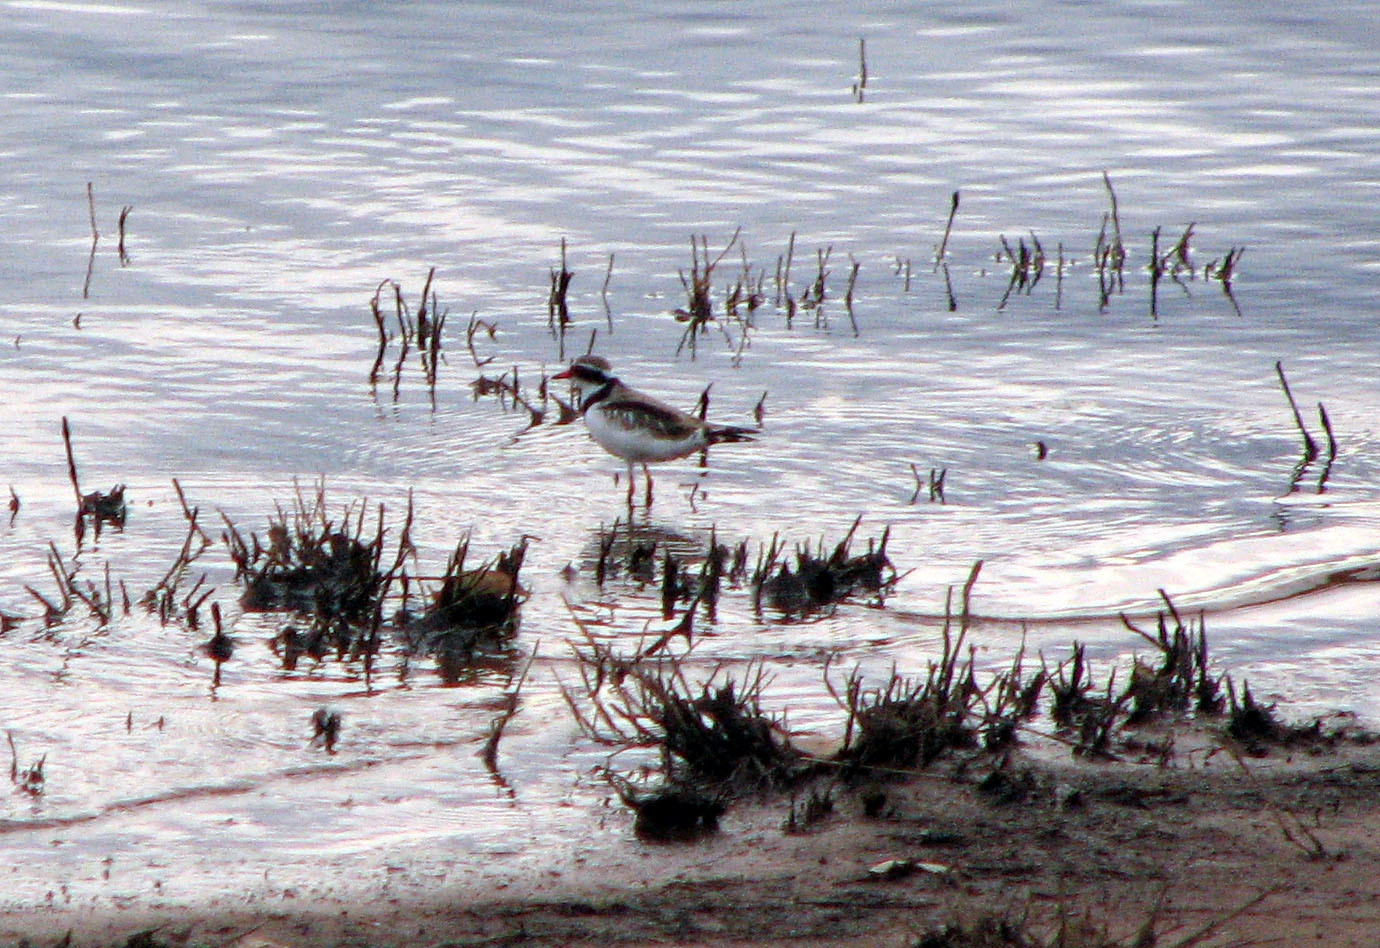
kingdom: Animalia
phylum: Chordata
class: Aves
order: Charadriiformes
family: Charadriidae
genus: Elseyornis
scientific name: Elseyornis melanops
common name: Black-fronted dotterel
